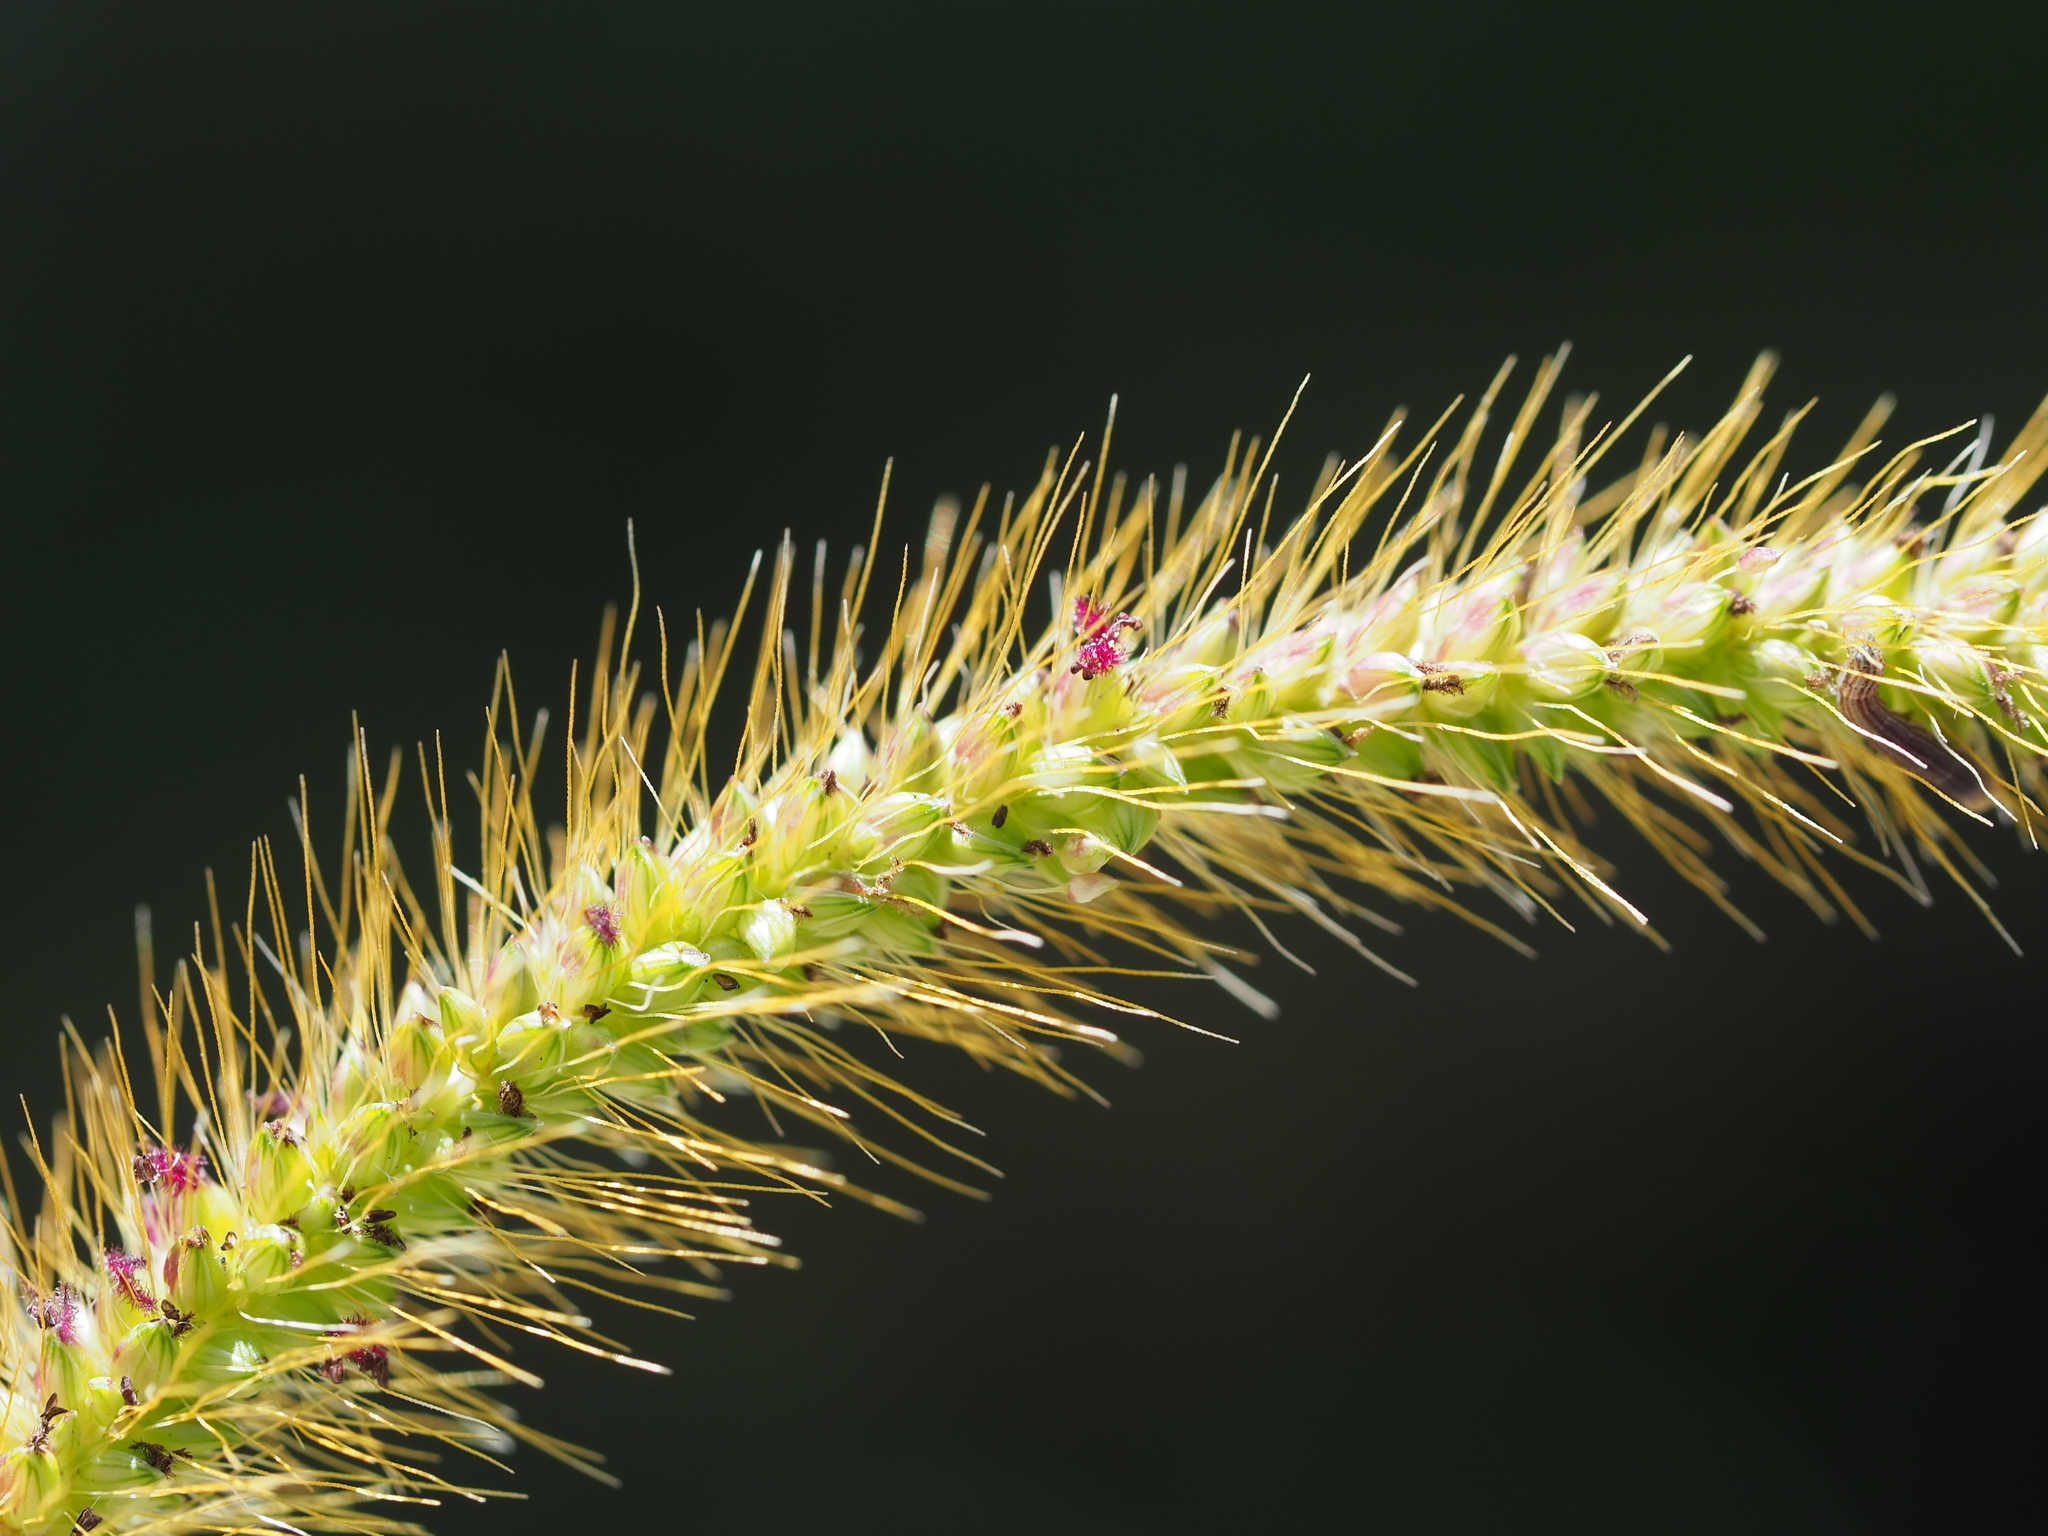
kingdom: Plantae
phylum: Tracheophyta
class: Liliopsida
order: Poales
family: Poaceae
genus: Setaria
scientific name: Setaria parviflora
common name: Knotroot bristle-grass
